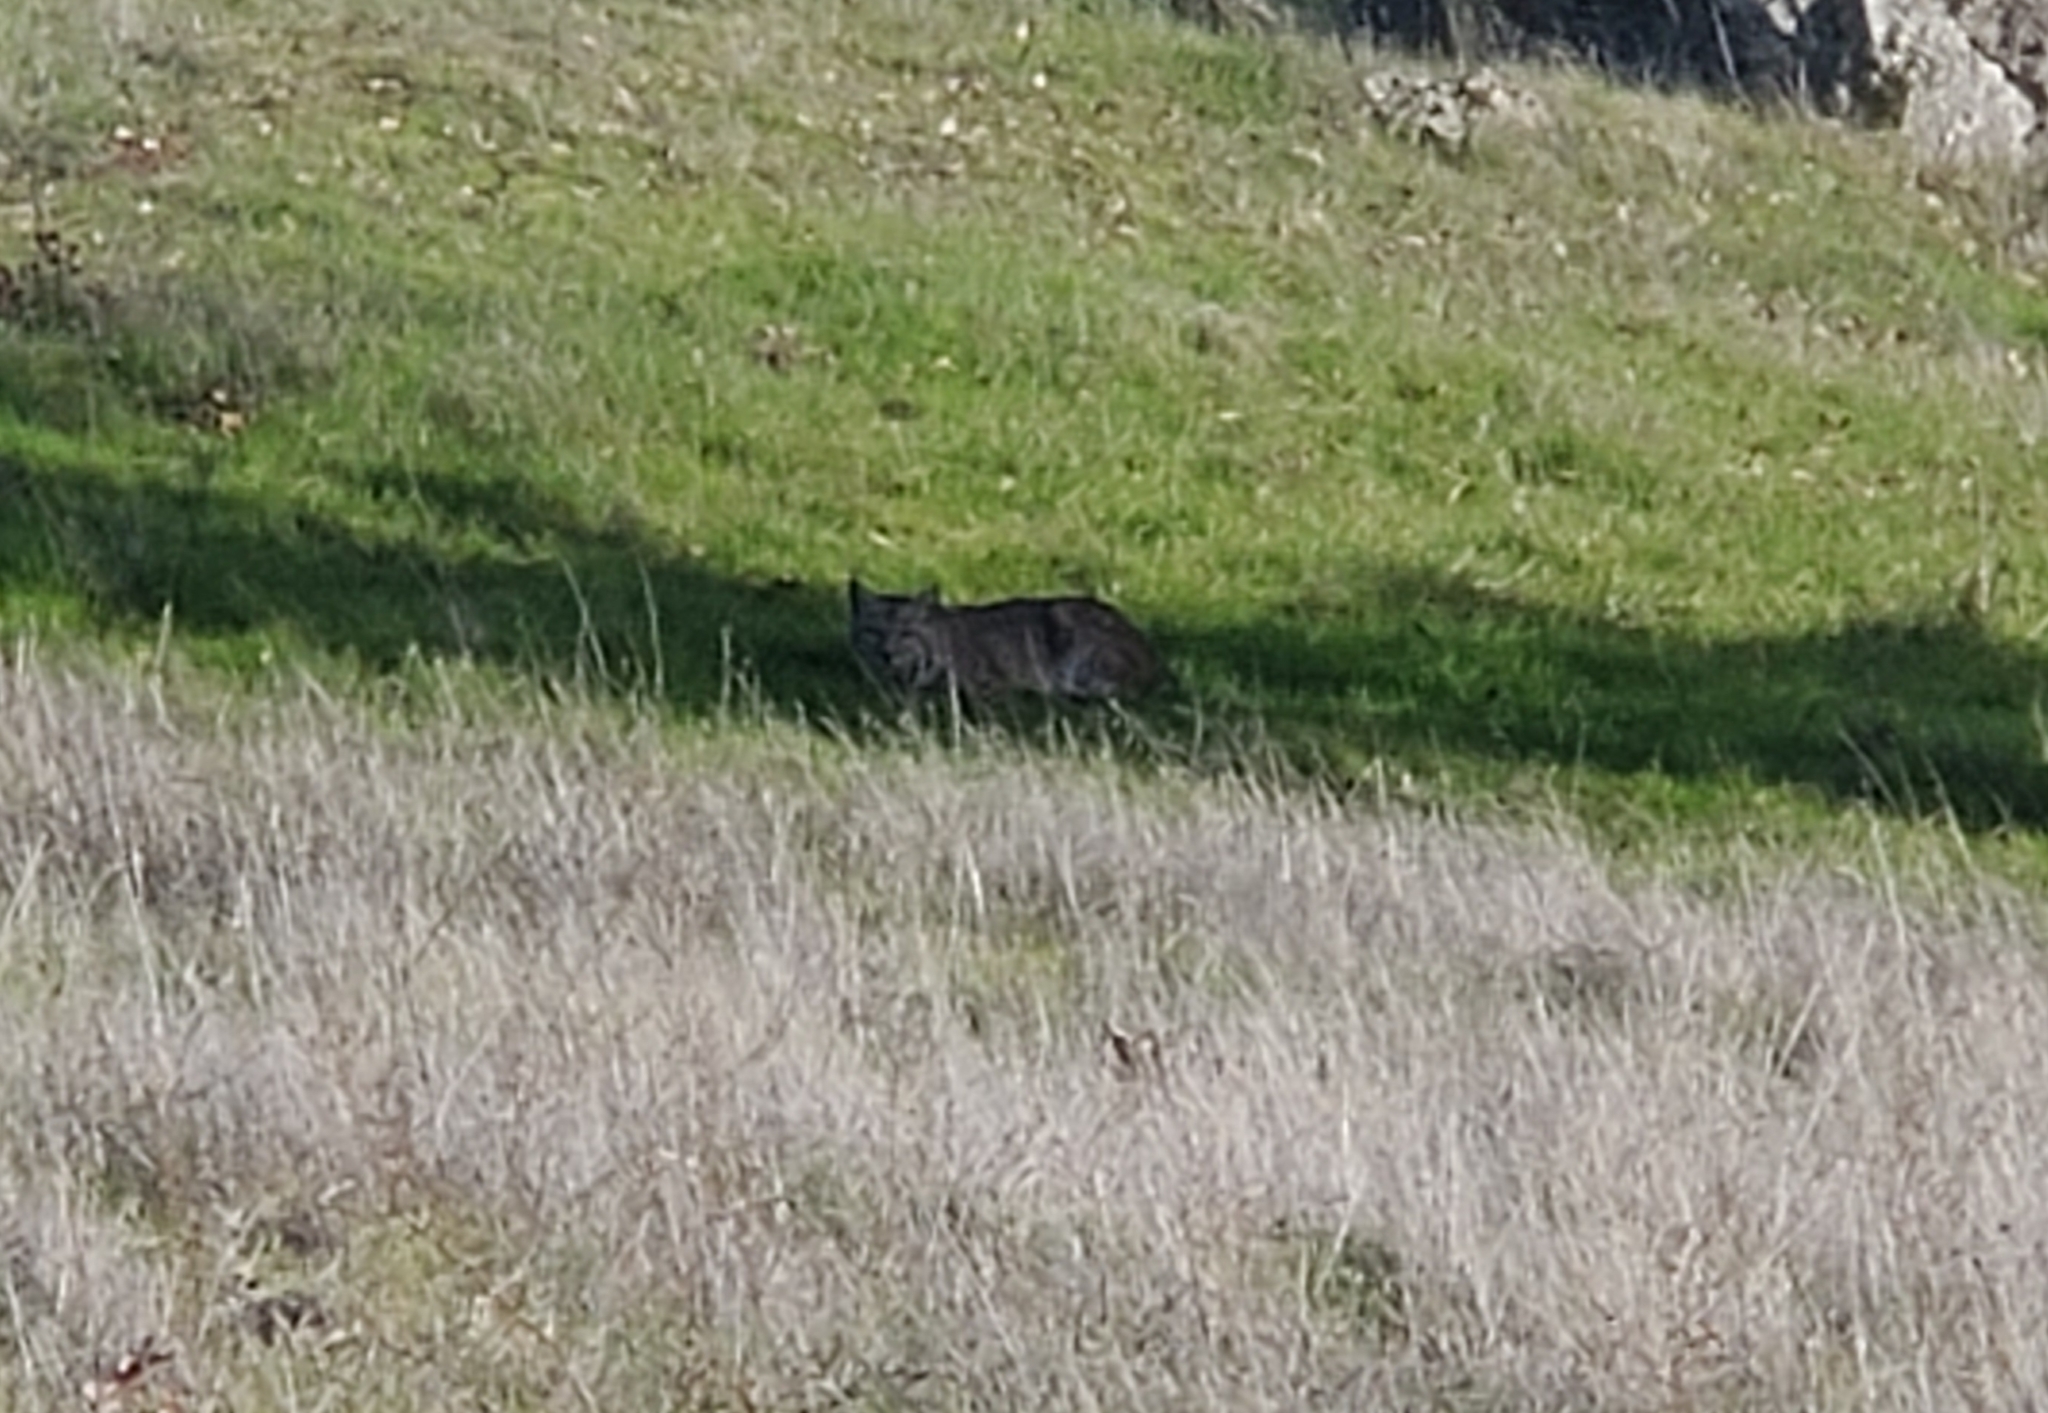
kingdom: Animalia
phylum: Chordata
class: Mammalia
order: Carnivora
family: Felidae
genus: Lynx
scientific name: Lynx rufus
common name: Bobcat
